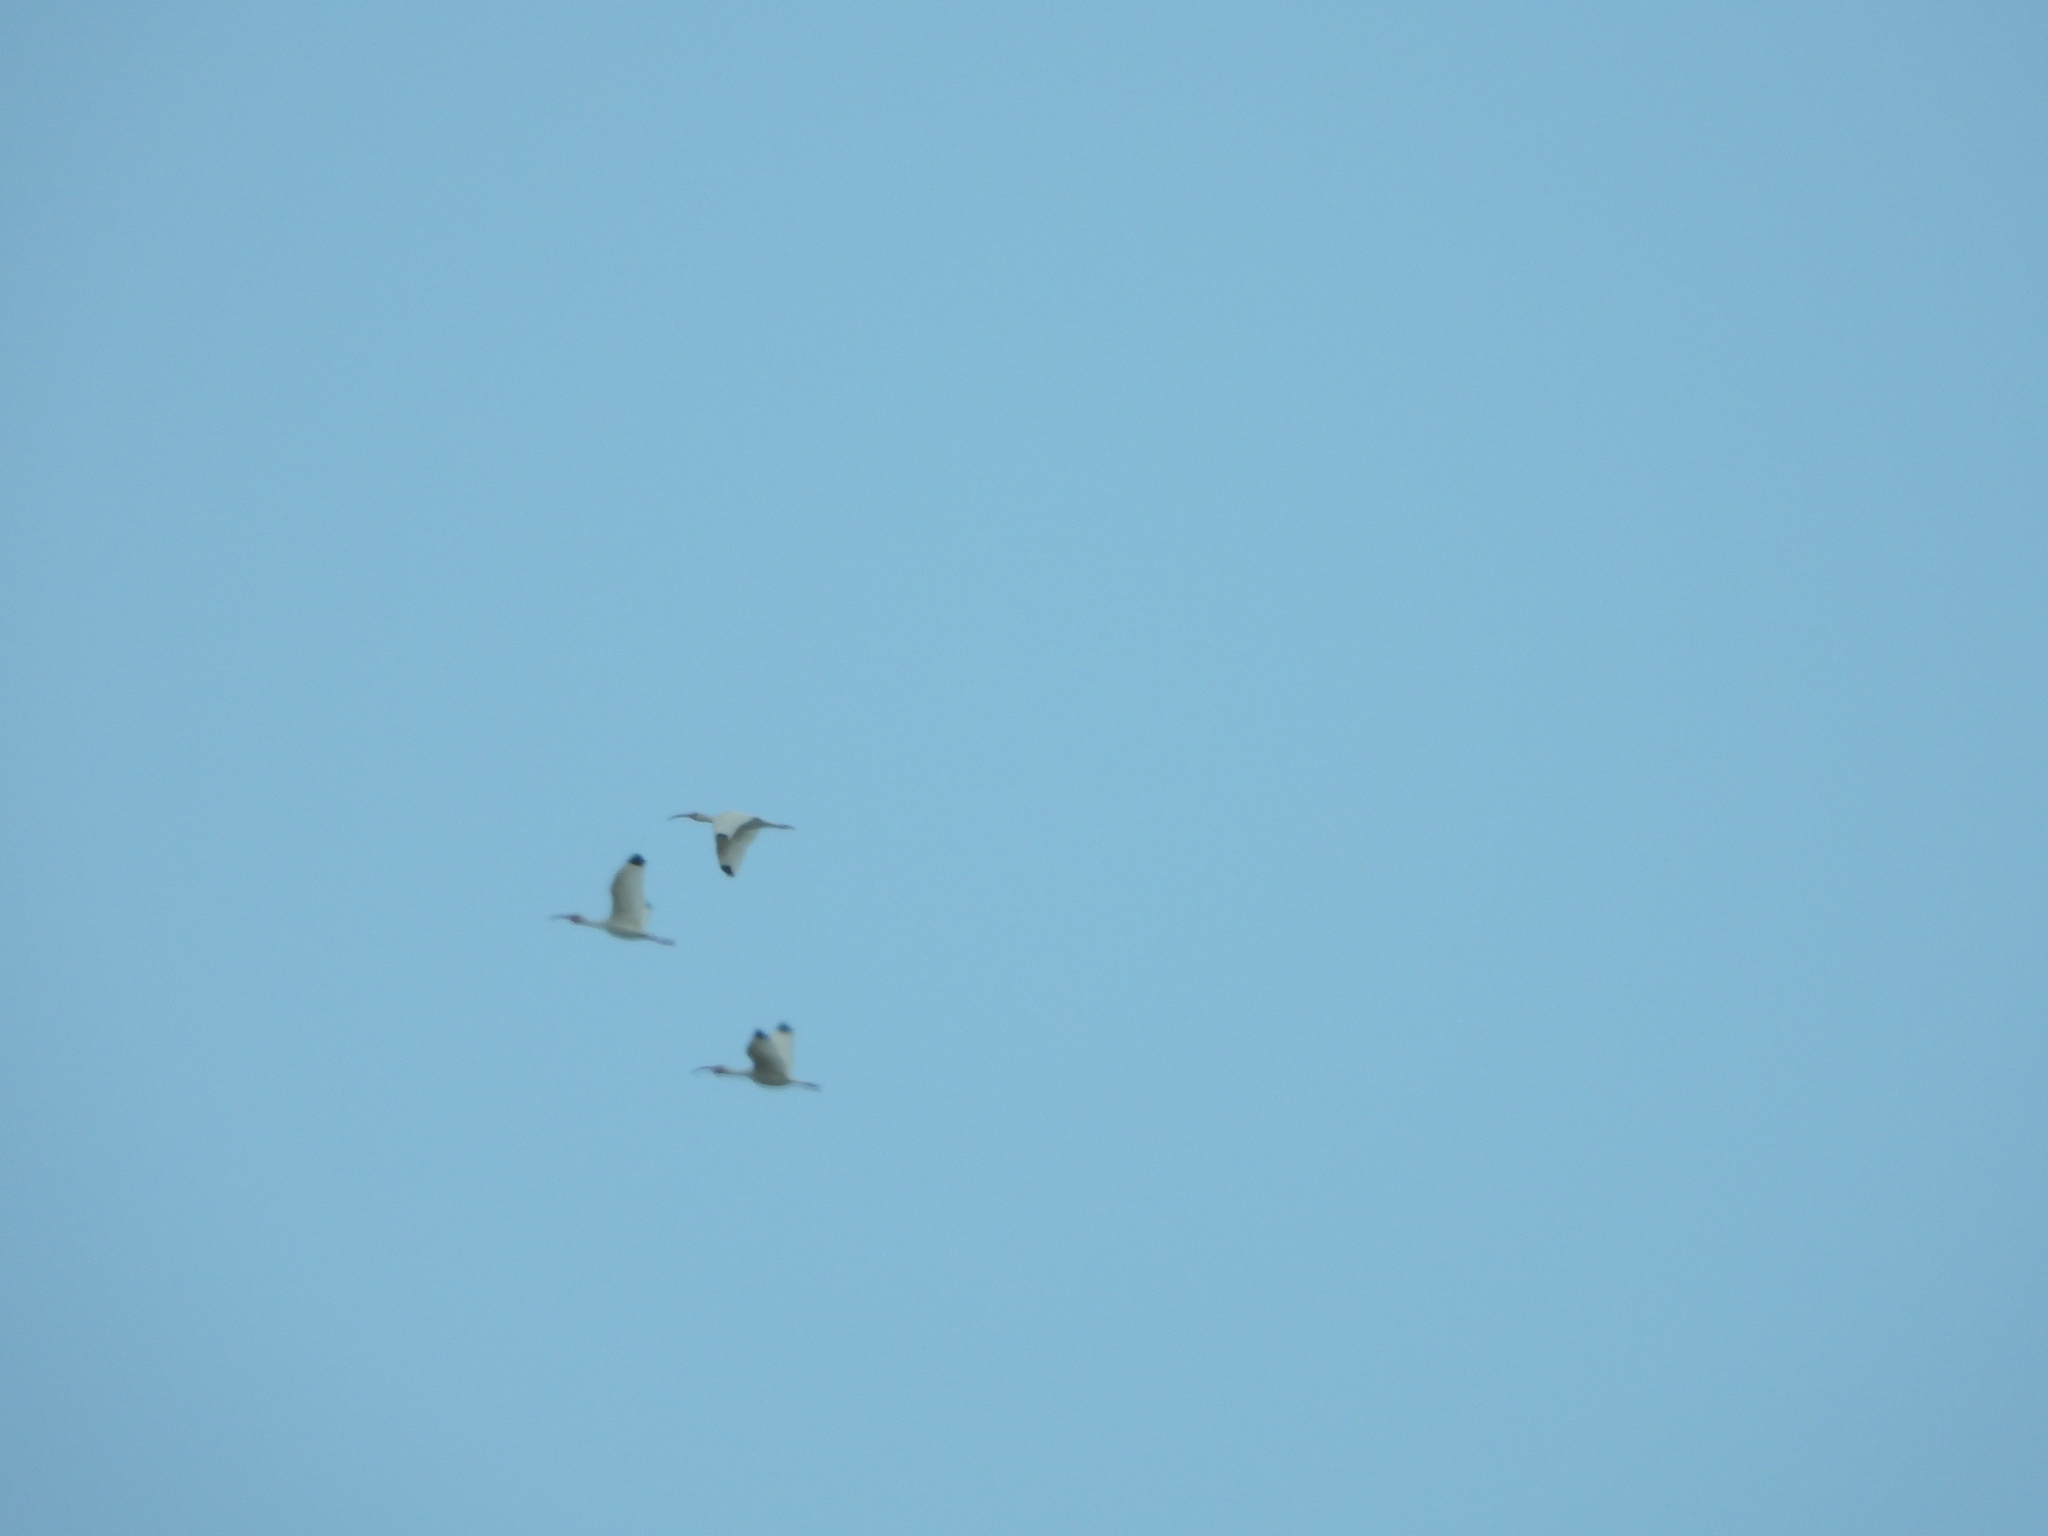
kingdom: Animalia
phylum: Chordata
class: Aves
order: Pelecaniformes
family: Threskiornithidae
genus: Eudocimus
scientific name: Eudocimus albus
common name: White ibis
